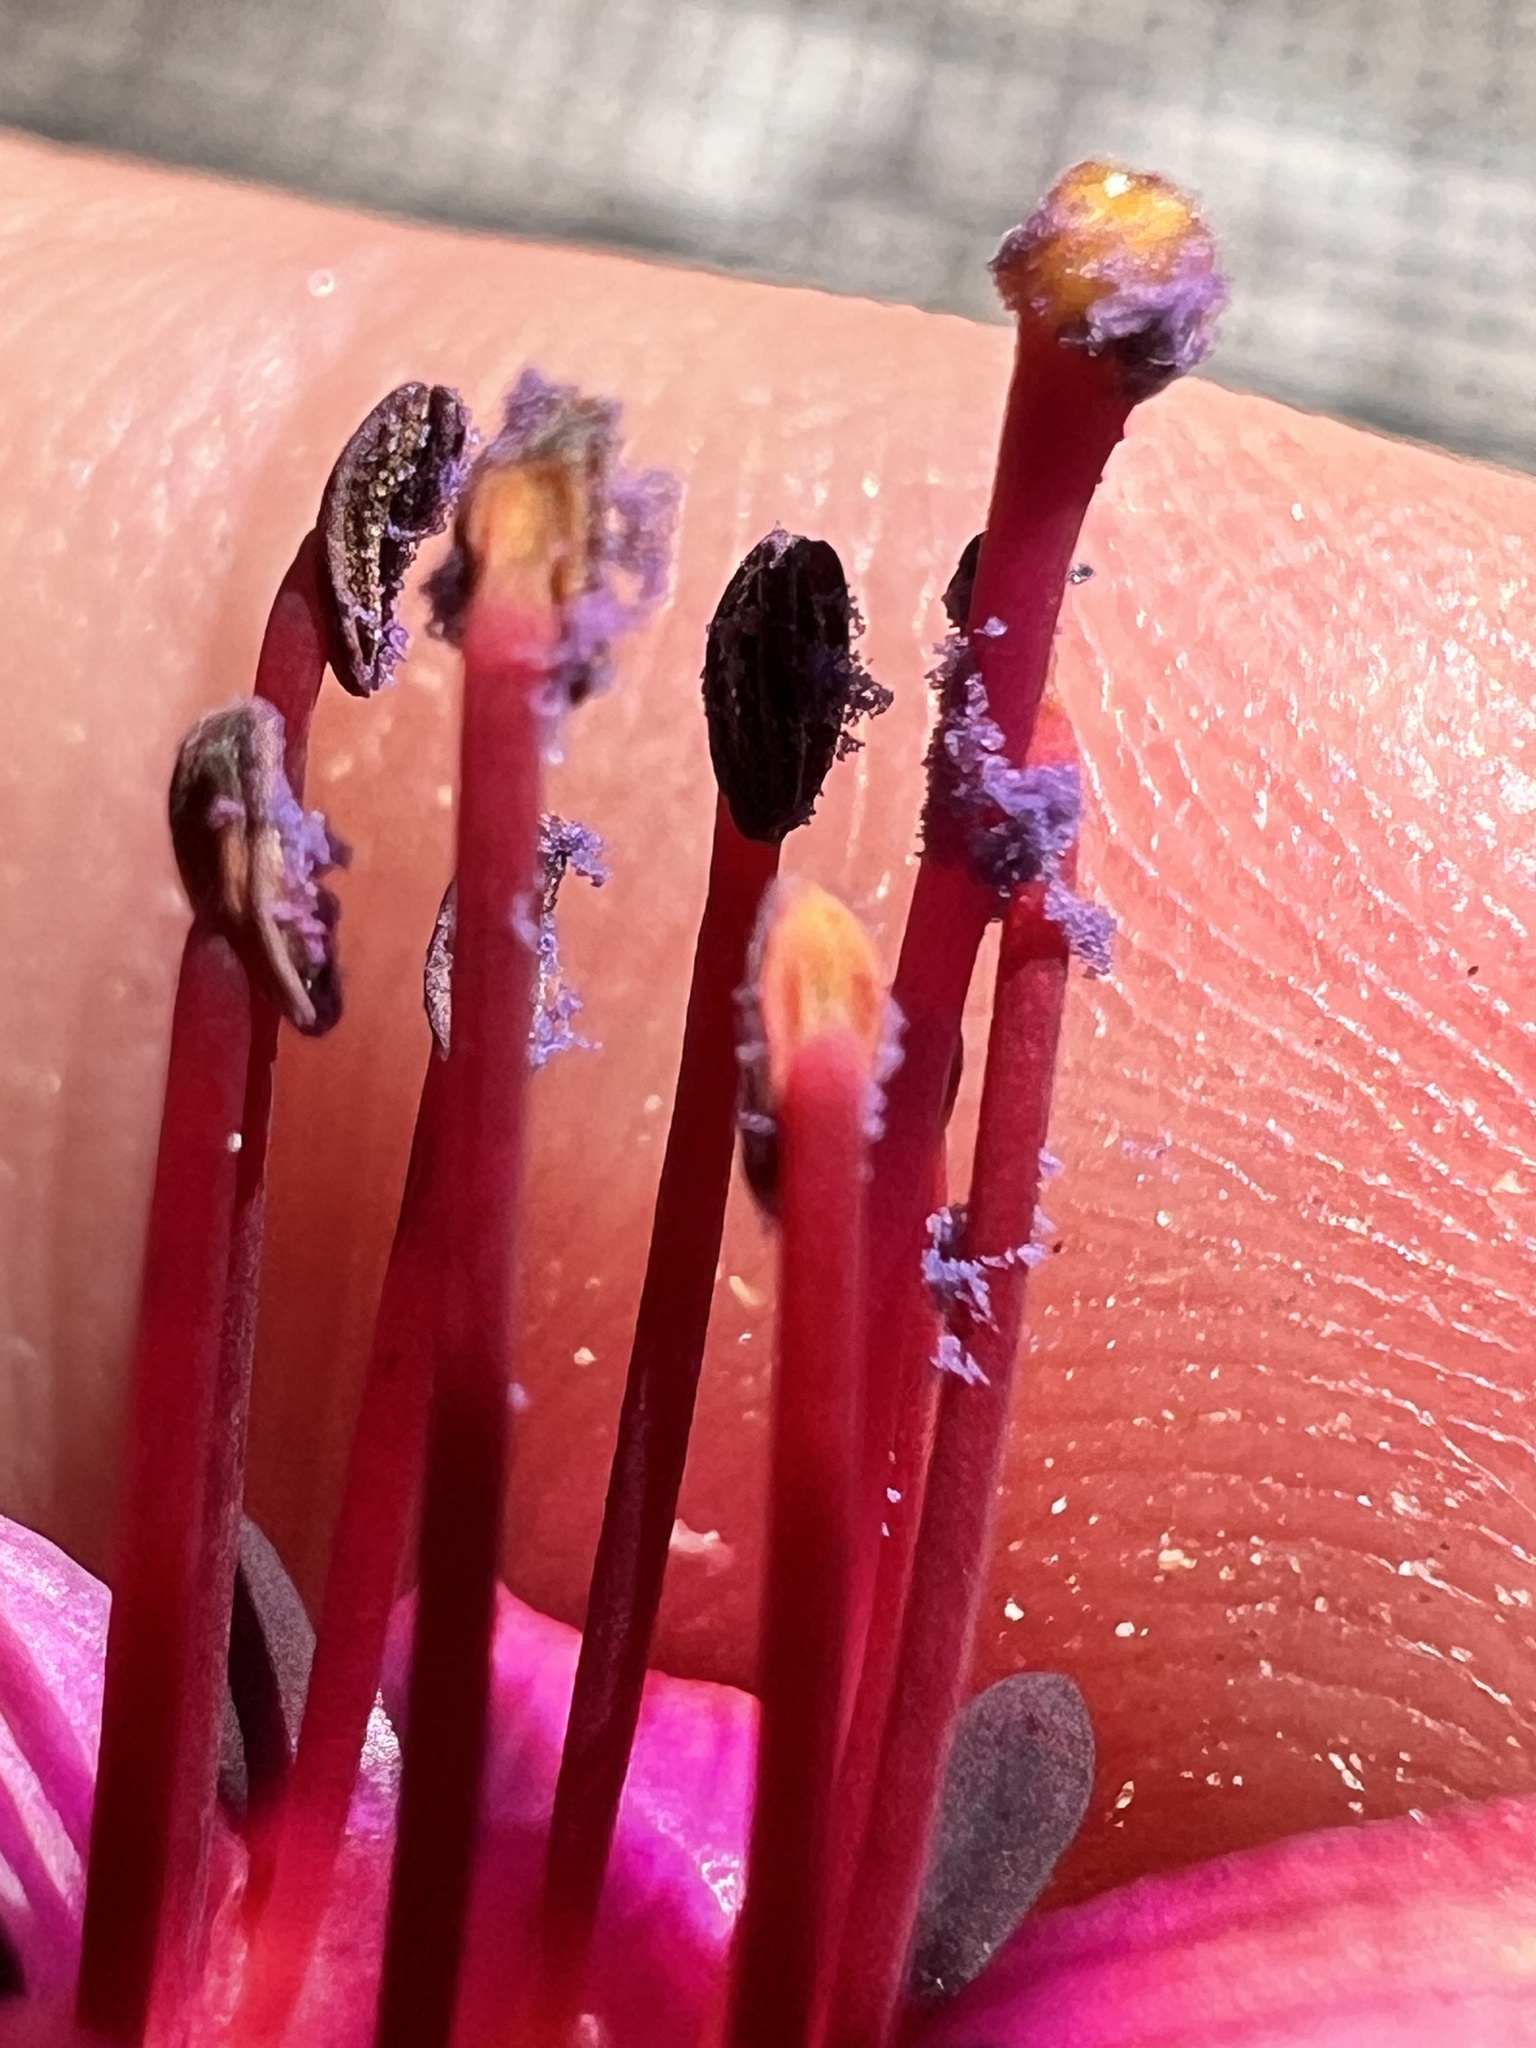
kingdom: Plantae
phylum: Tracheophyta
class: Magnoliopsida
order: Myrtales
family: Onagraceae
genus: Fuchsia
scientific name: Fuchsia excorticata
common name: Tree fuchsia
